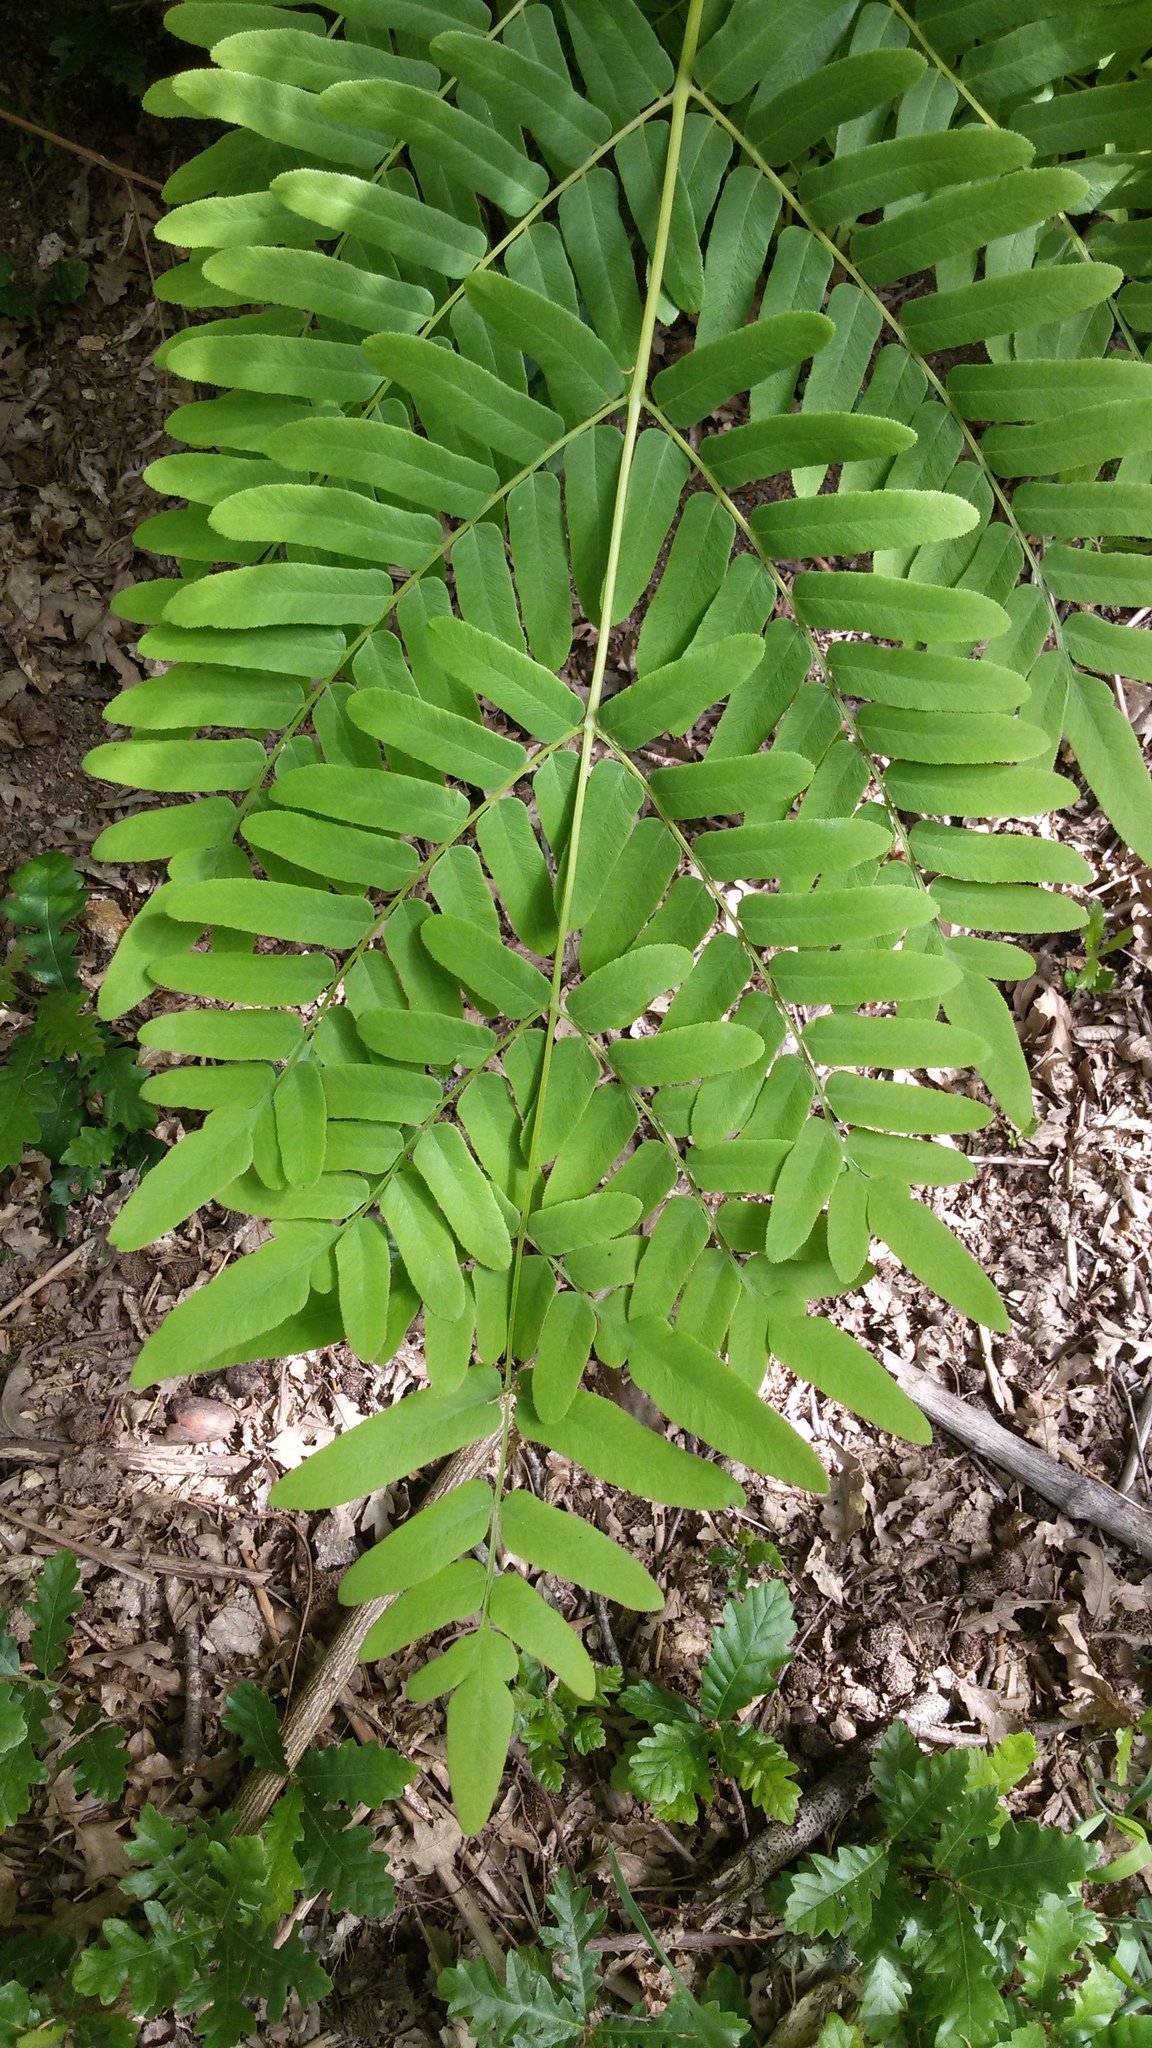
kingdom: Plantae
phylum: Tracheophyta
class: Polypodiopsida
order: Osmundales
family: Osmundaceae
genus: Osmunda
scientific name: Osmunda regalis
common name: Royal fern
